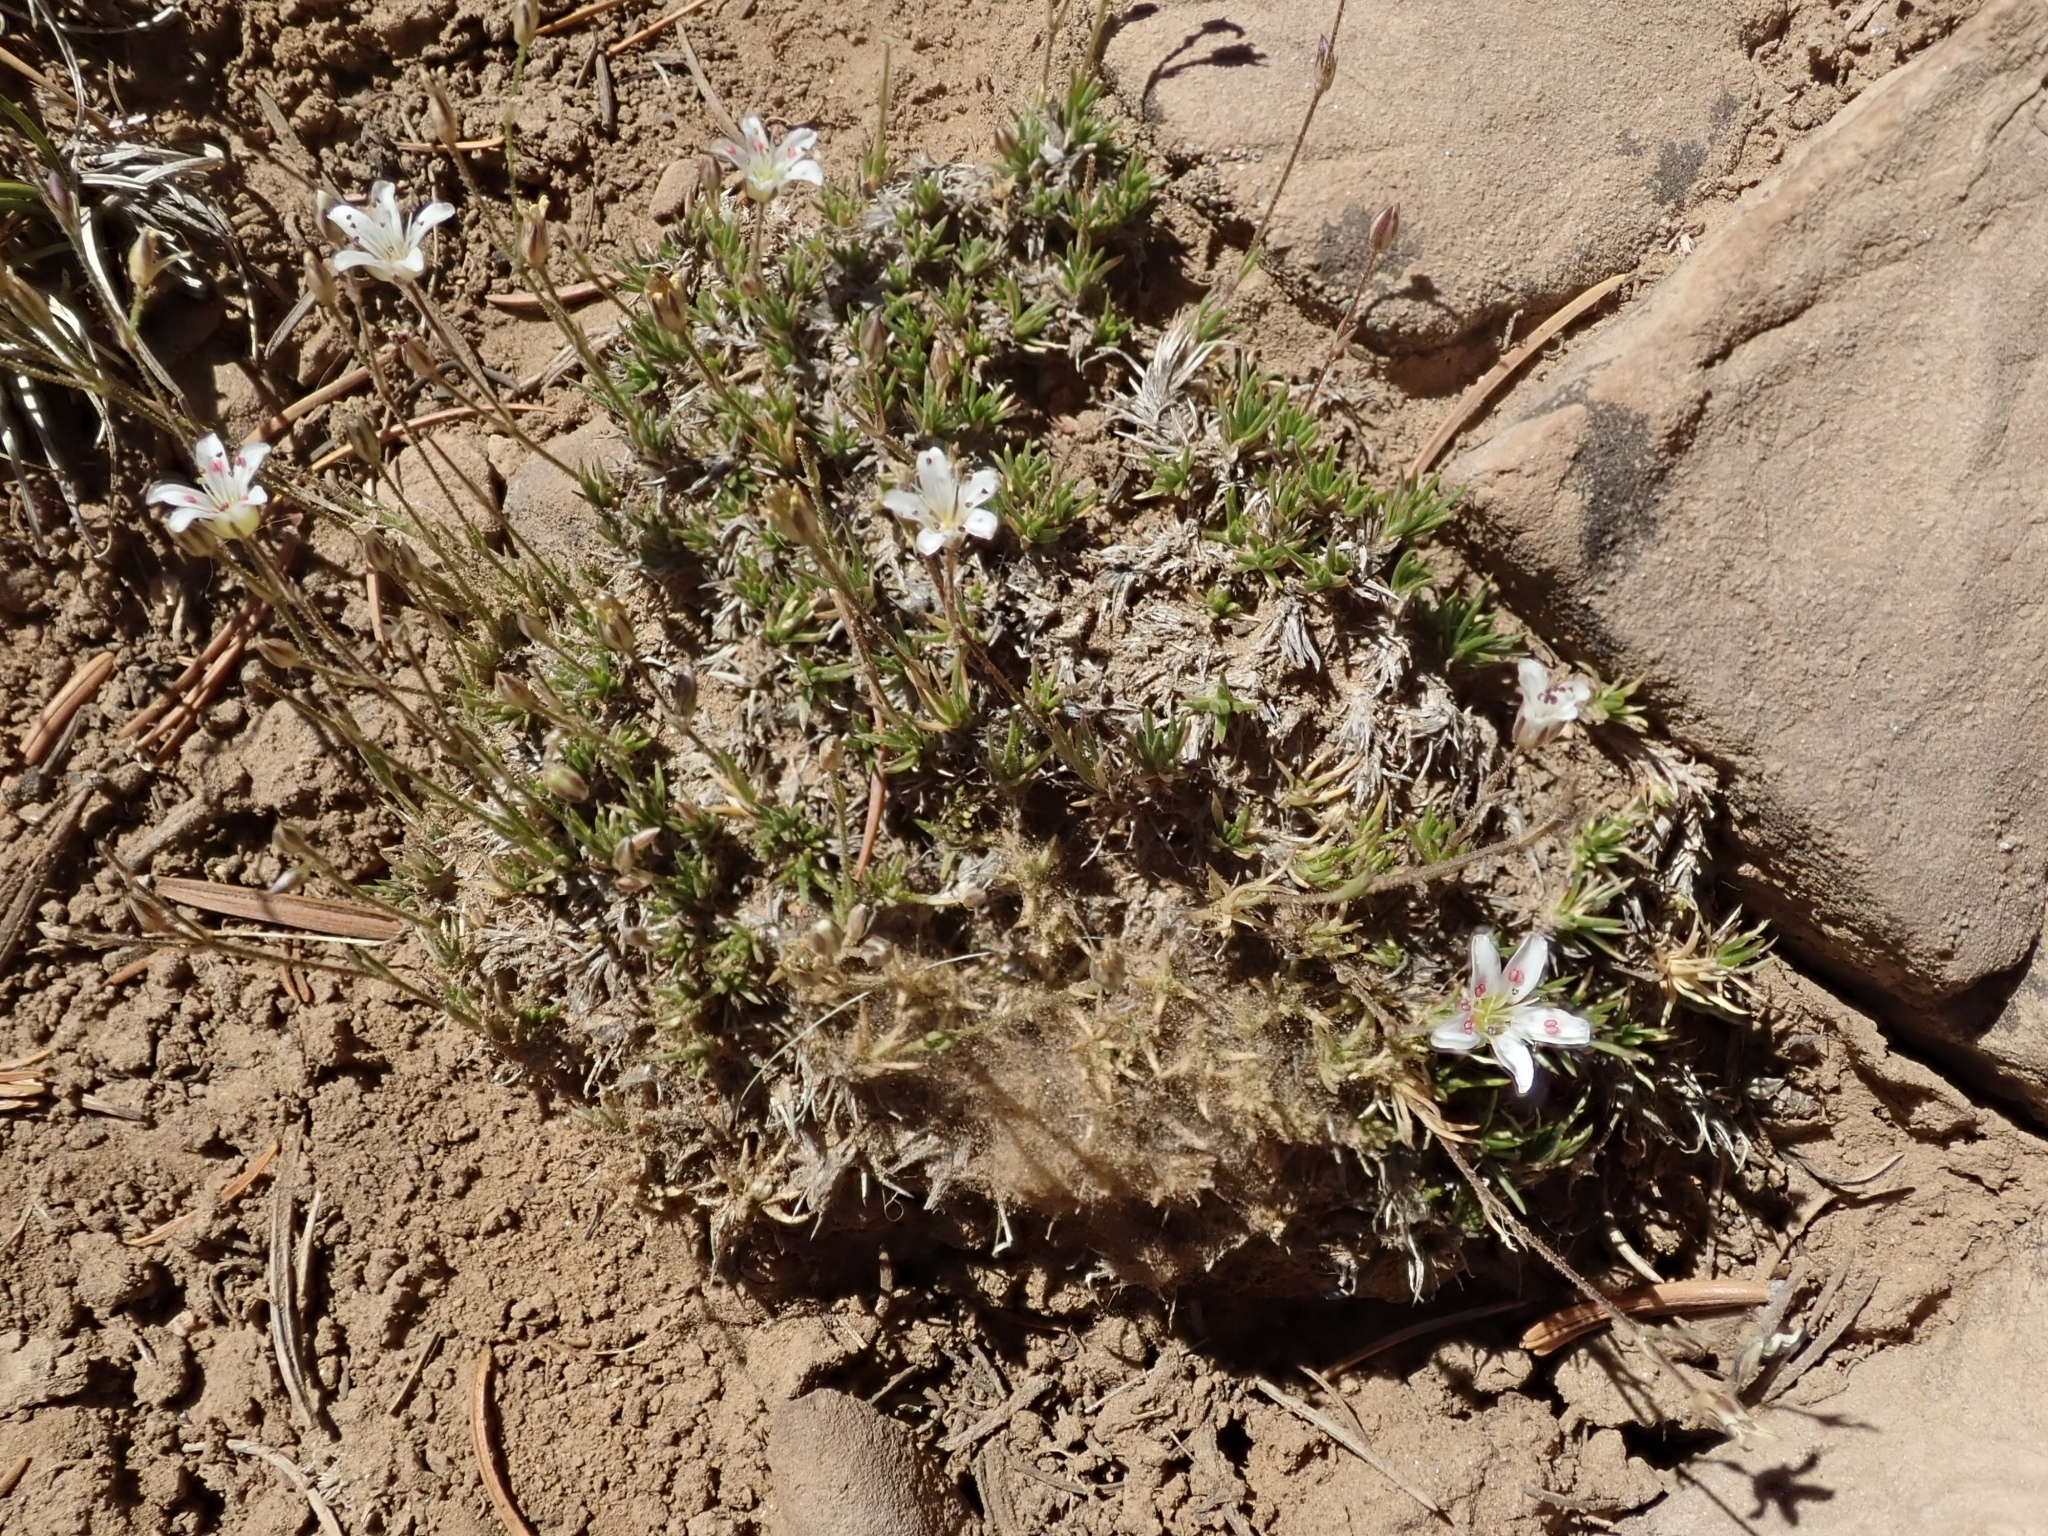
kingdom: Plantae
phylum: Tracheophyta
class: Magnoliopsida
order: Caryophyllales
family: Caryophyllaceae
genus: Eremogone
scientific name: Eremogone kingii
